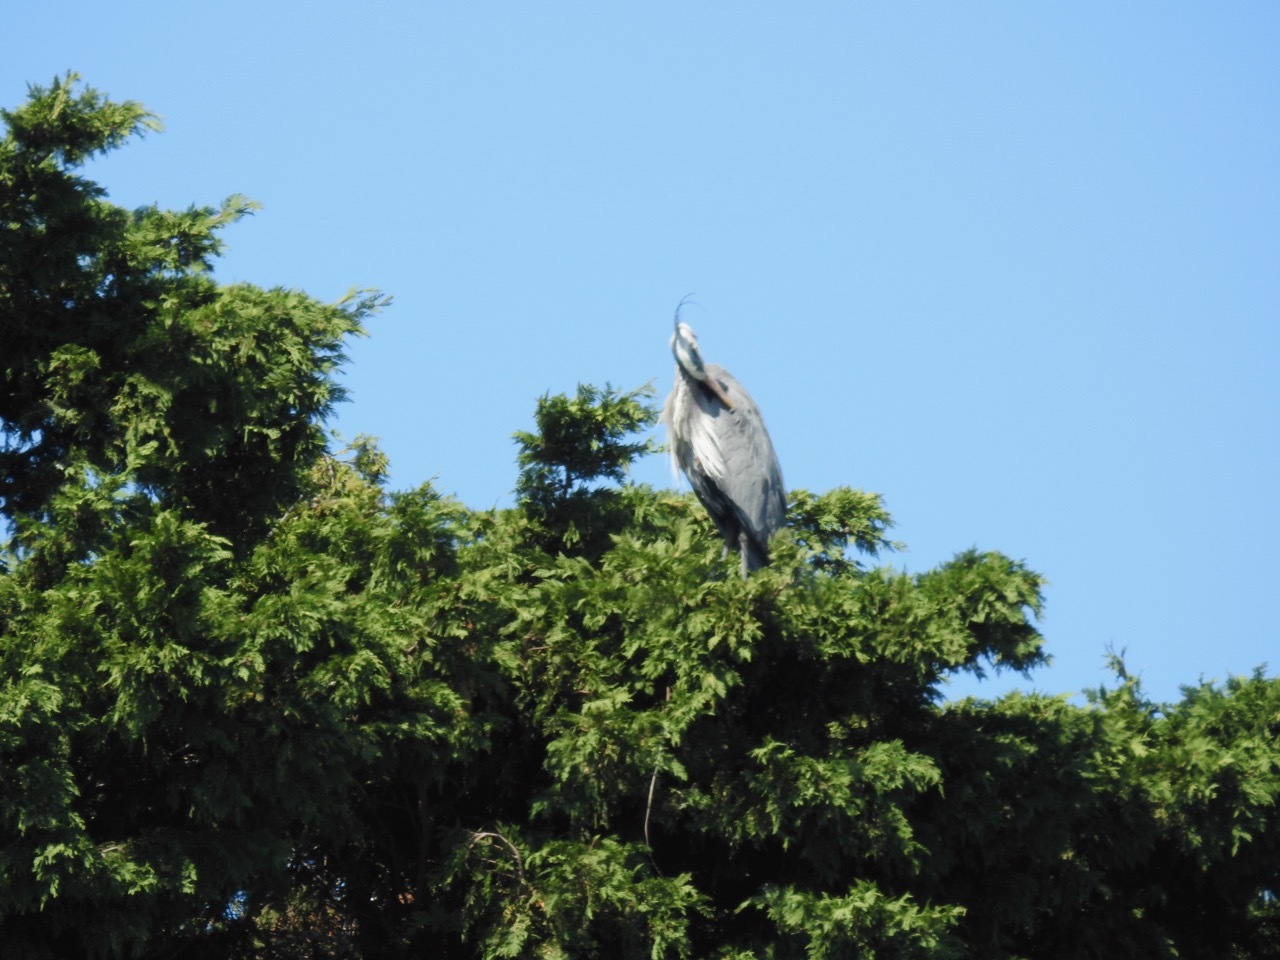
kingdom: Animalia
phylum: Chordata
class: Aves
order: Pelecaniformes
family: Ardeidae
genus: Ardea
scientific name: Ardea herodias
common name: Great blue heron
